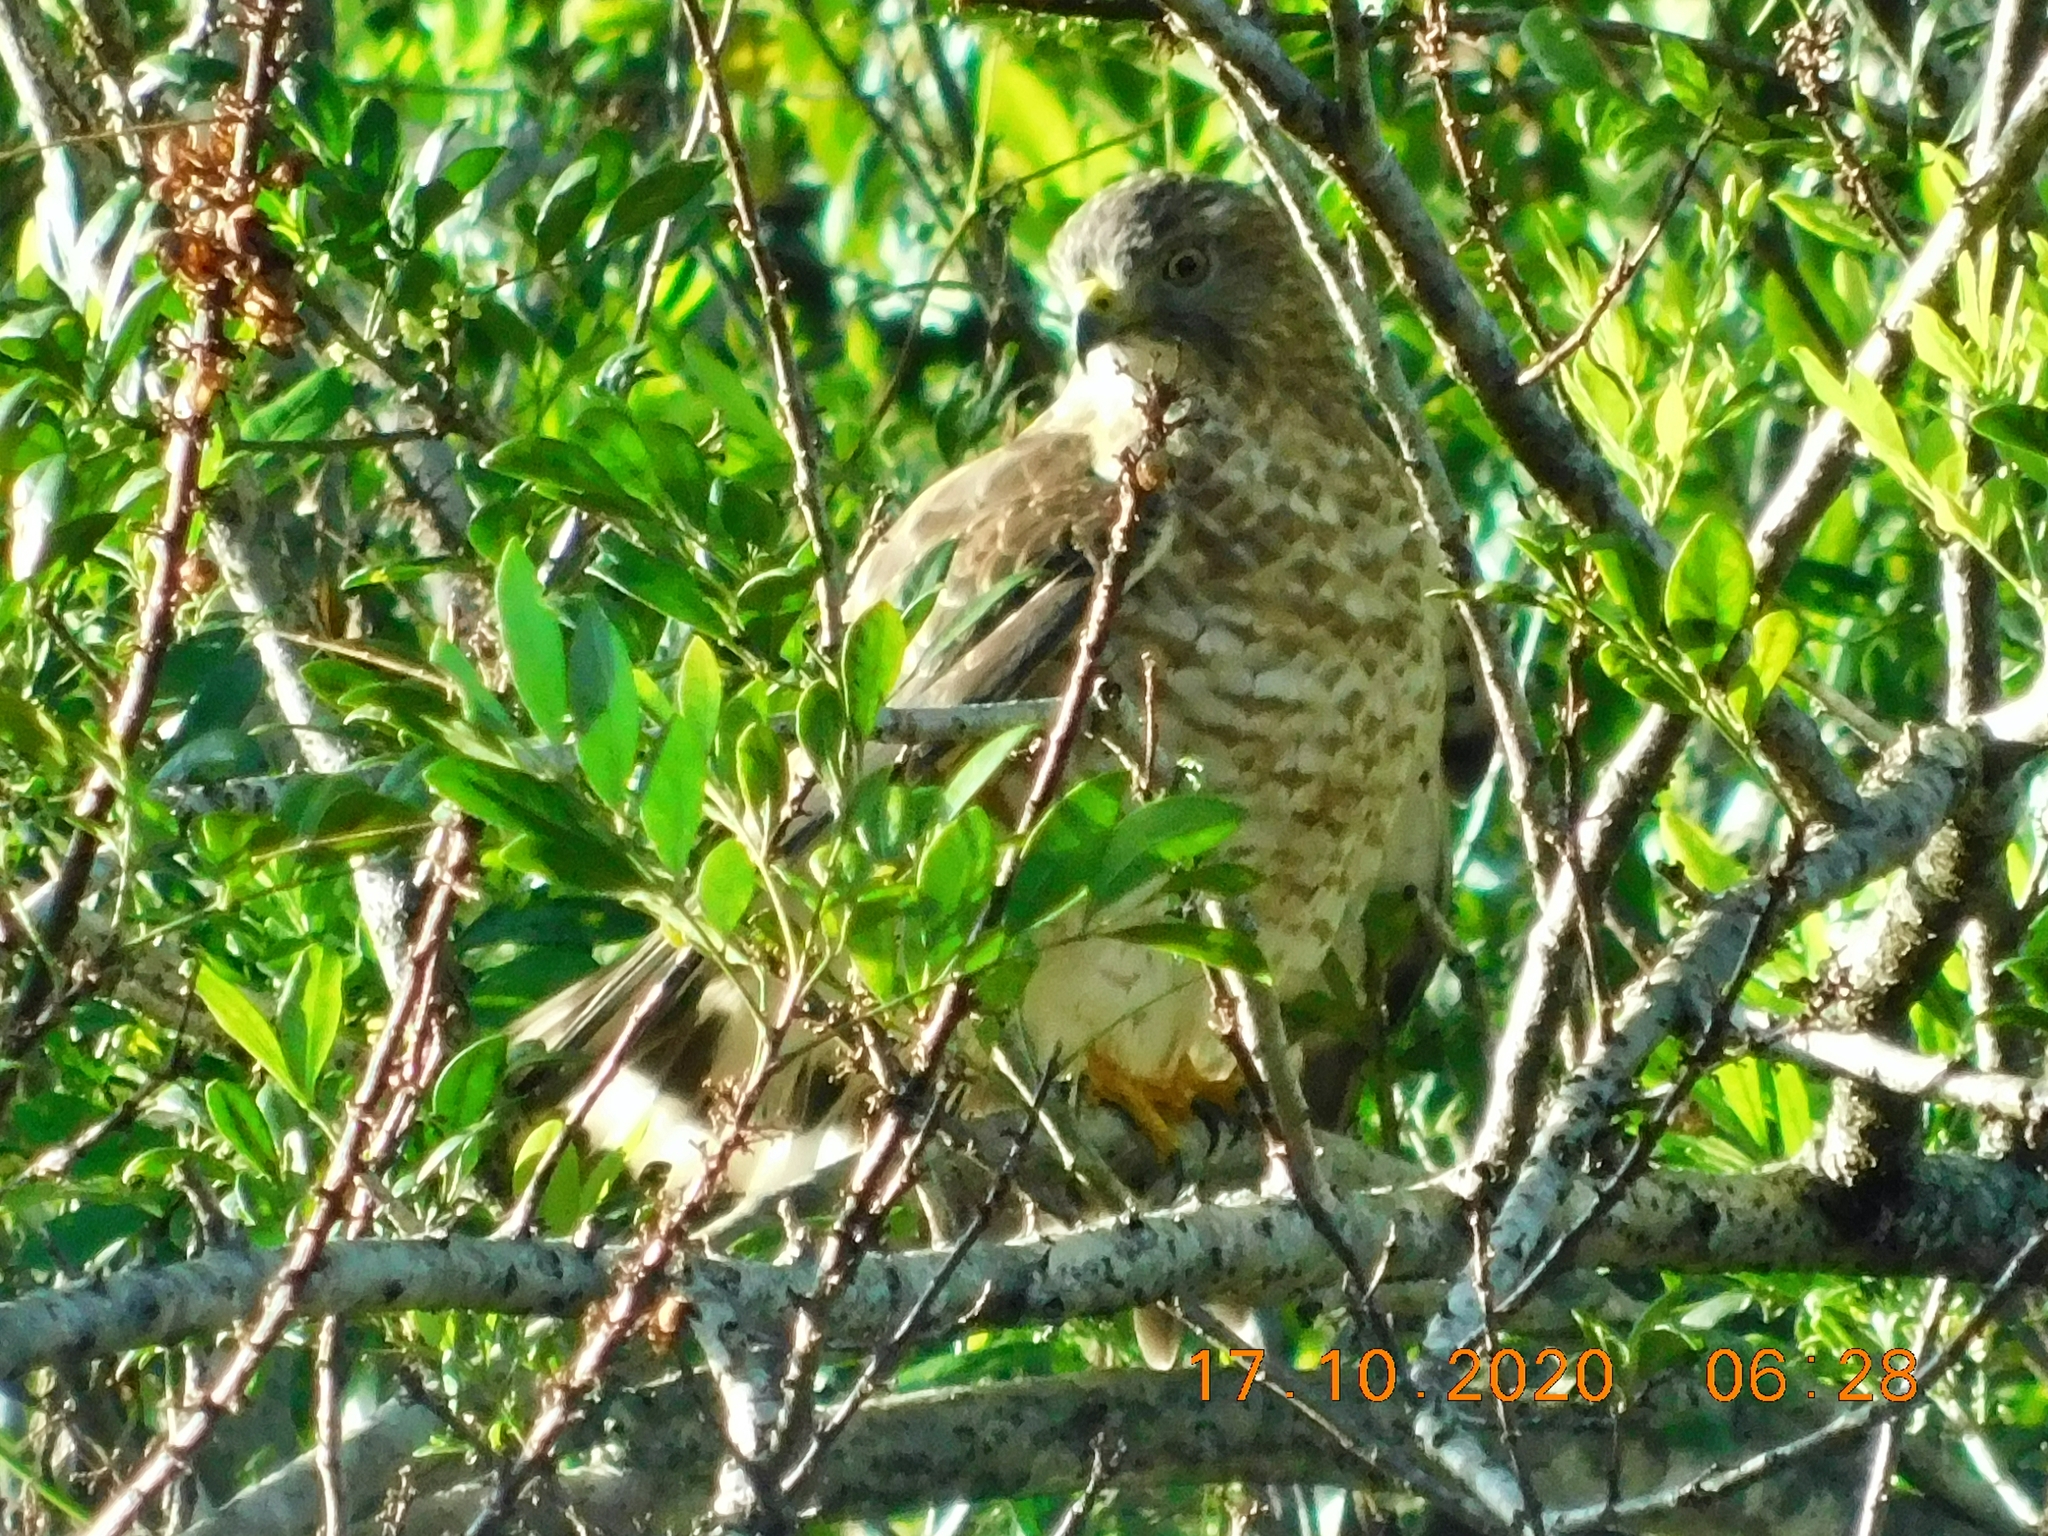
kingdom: Animalia
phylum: Chordata
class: Aves
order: Accipitriformes
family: Accipitridae
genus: Buteo
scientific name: Buteo platypterus
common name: Broad-winged hawk
